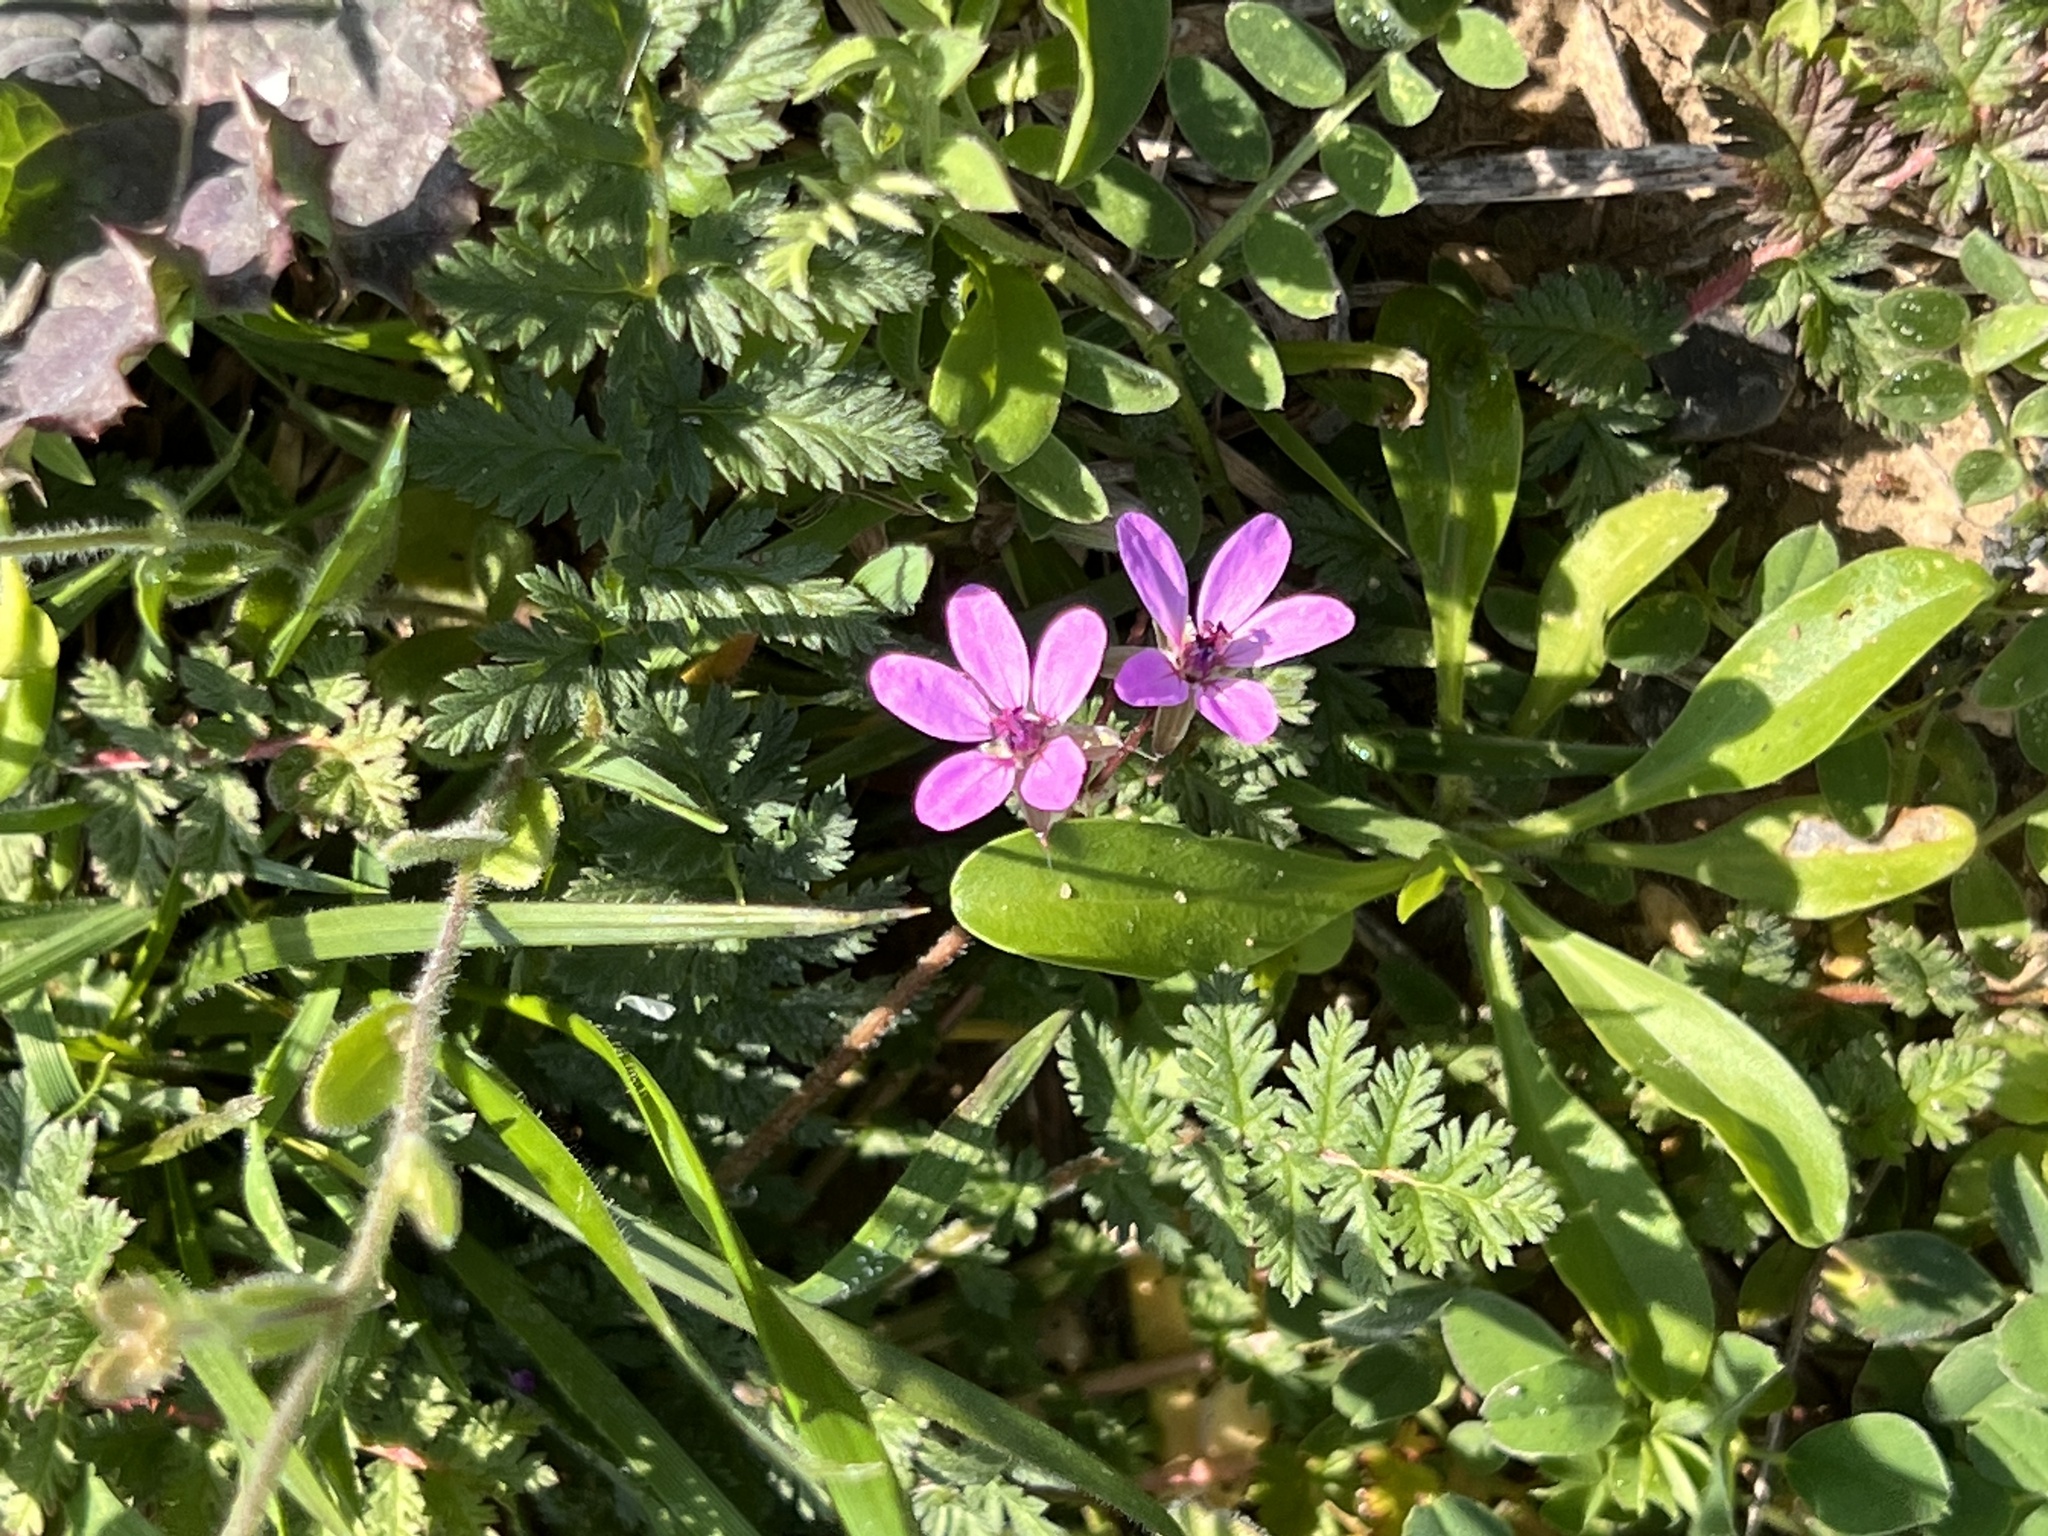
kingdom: Plantae
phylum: Tracheophyta
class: Magnoliopsida
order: Geraniales
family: Geraniaceae
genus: Erodium
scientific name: Erodium cicutarium
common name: Common stork's-bill
